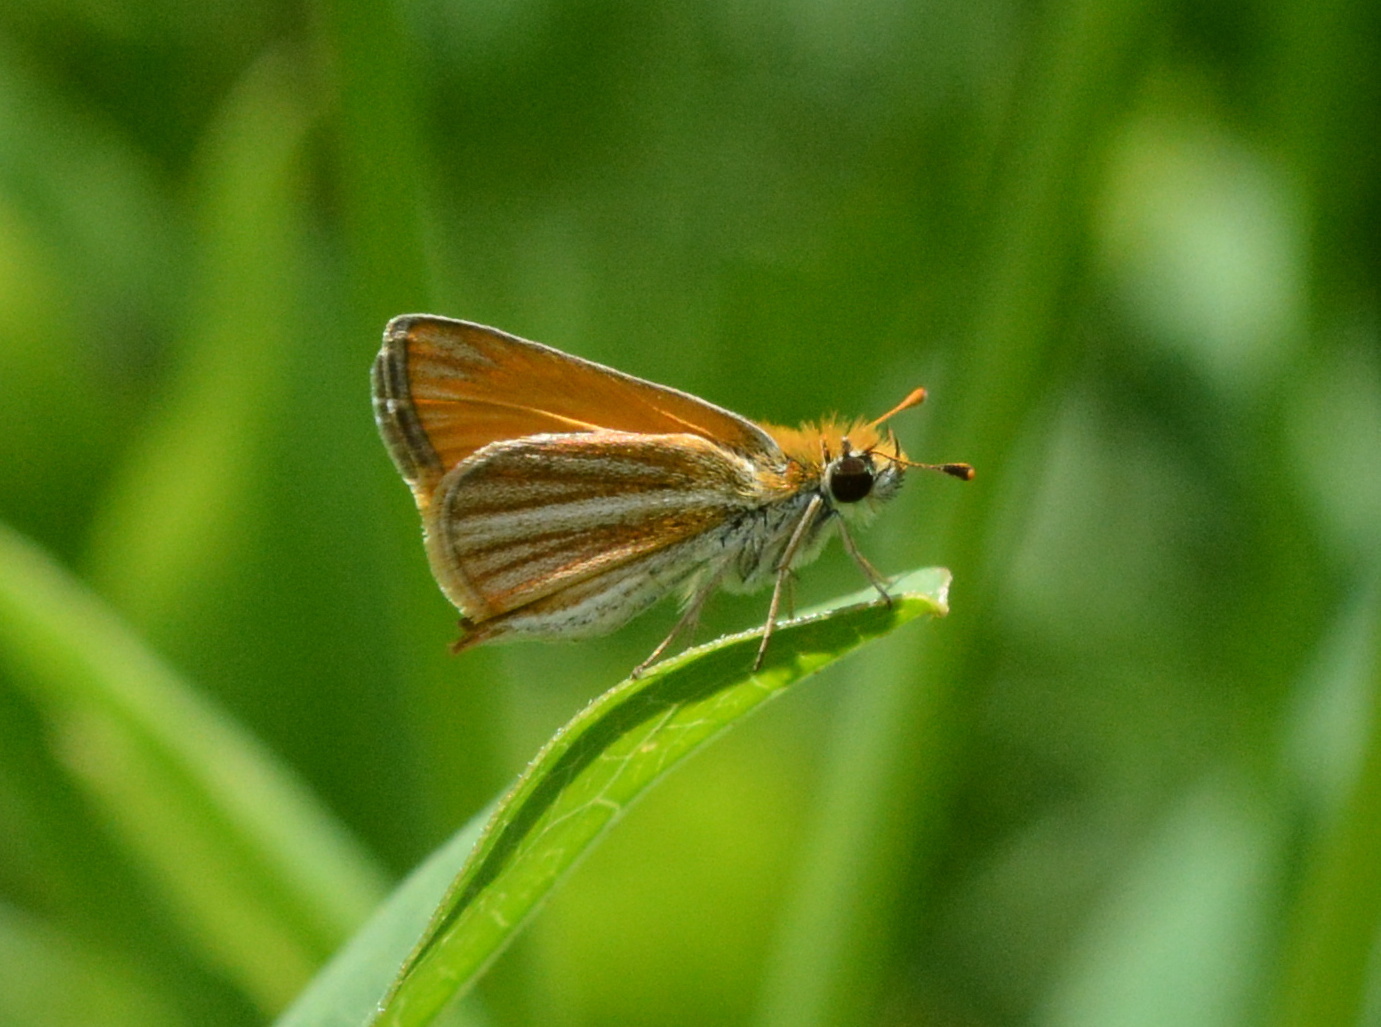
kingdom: Animalia
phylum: Arthropoda
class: Insecta
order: Lepidoptera
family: Hesperiidae
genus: Copaeodes
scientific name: Copaeodes minima
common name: Southern skipperling
